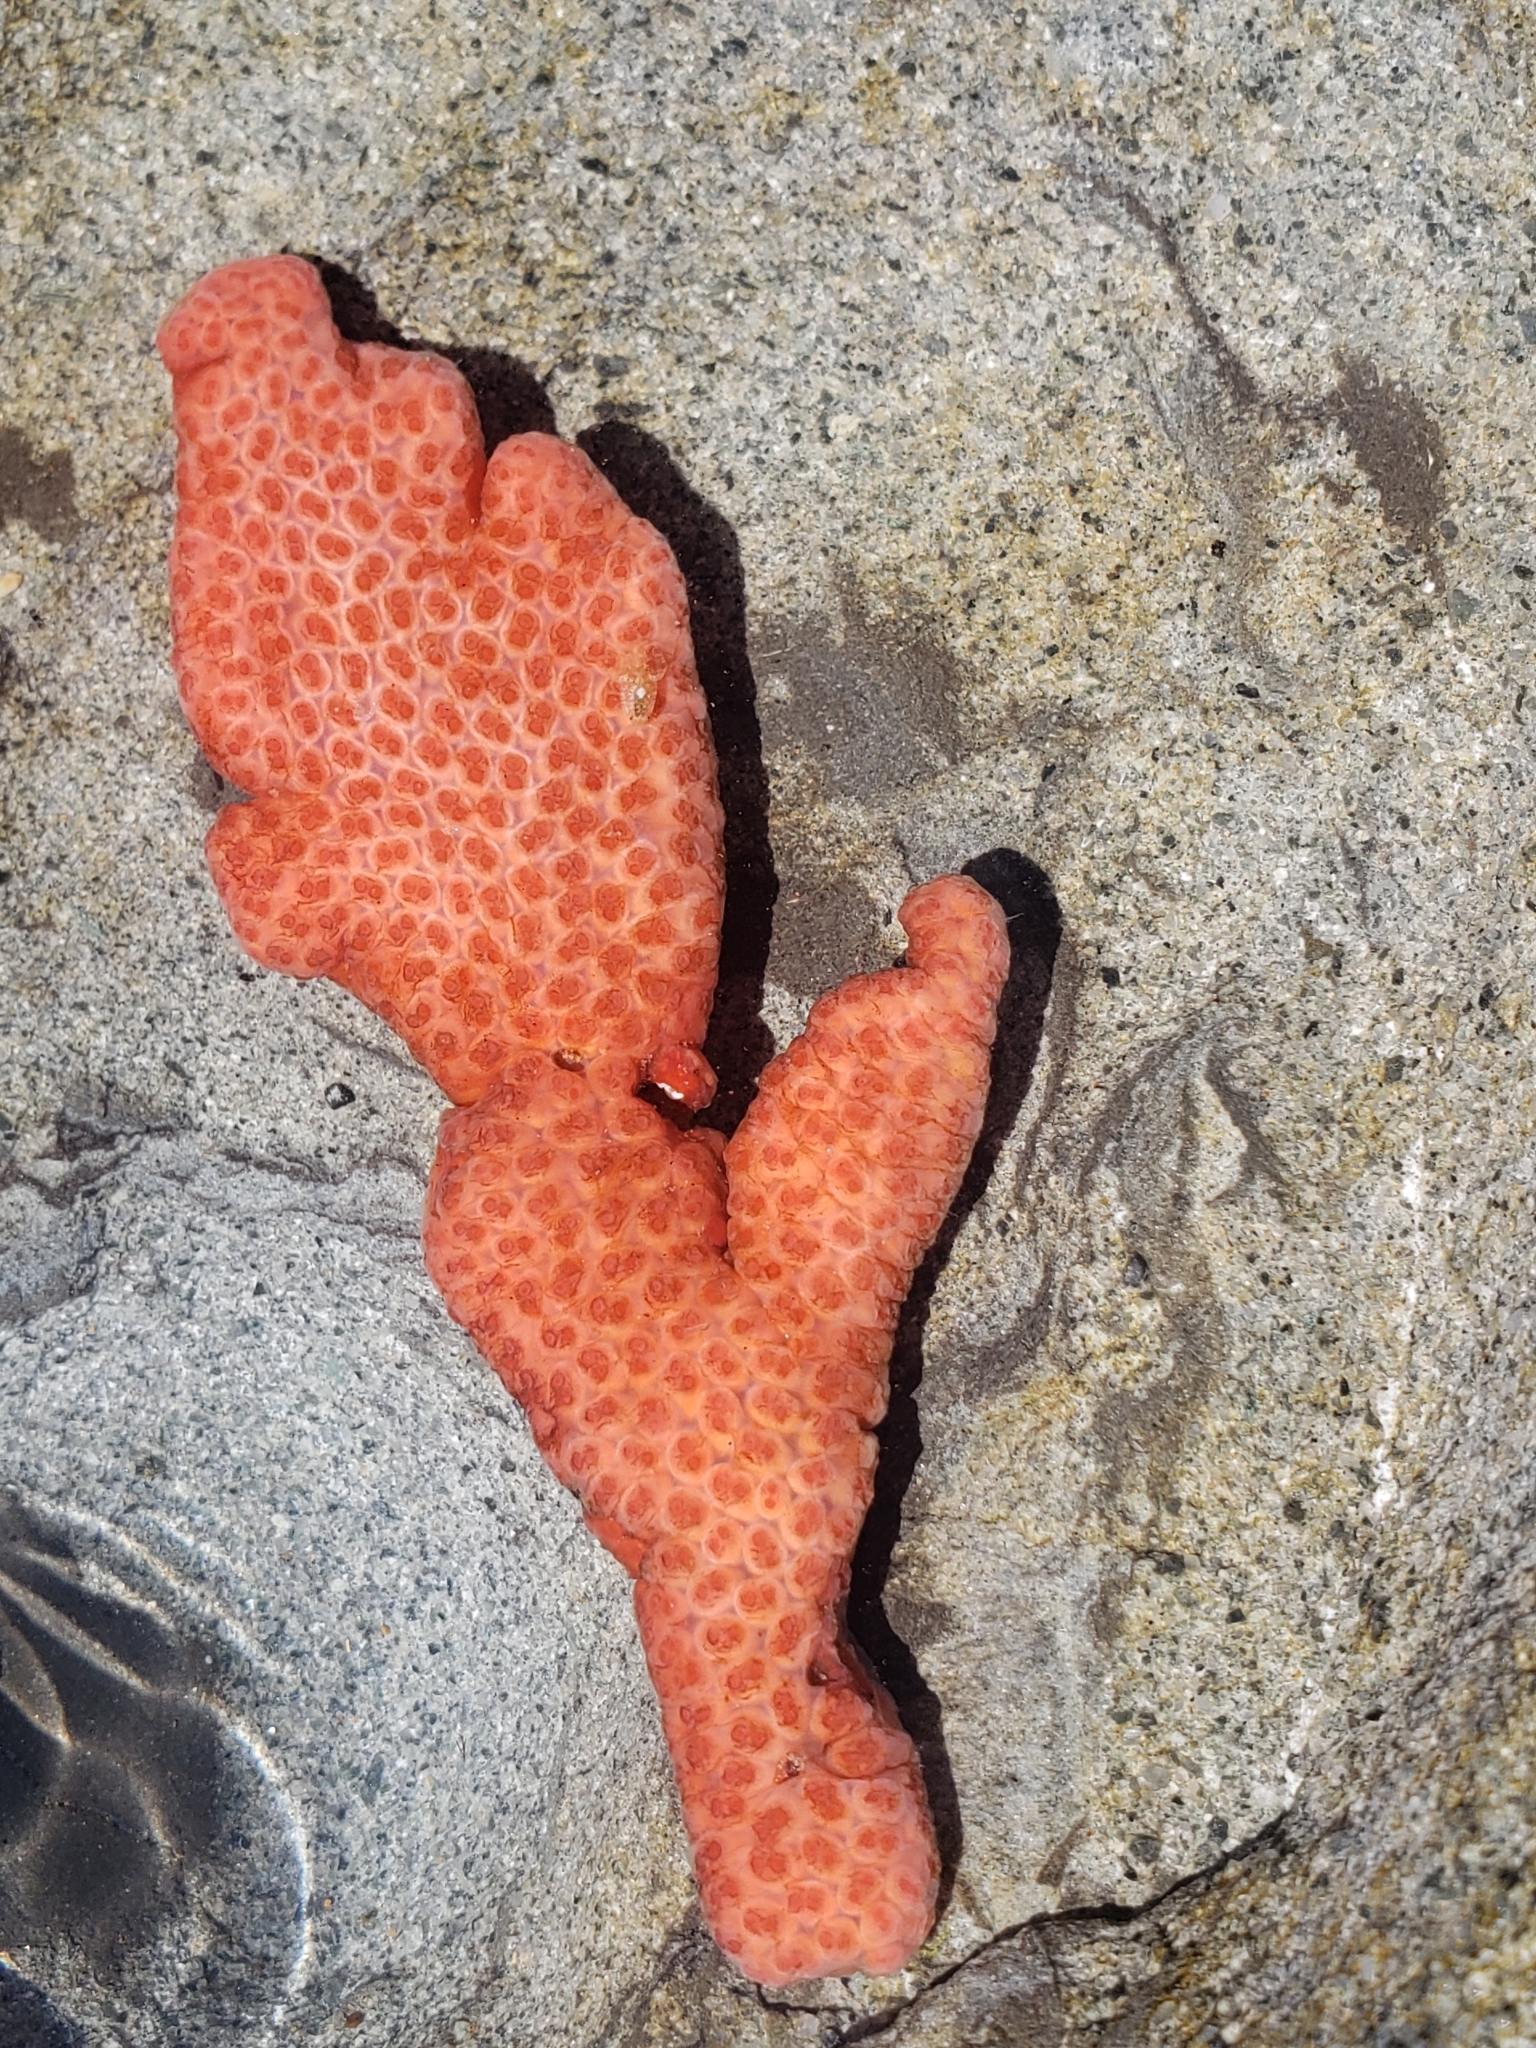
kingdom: Animalia
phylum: Chordata
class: Ascidiacea
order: Stolidobranchia
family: Styelidae
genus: Metandrocarpa
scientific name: Metandrocarpa dura
